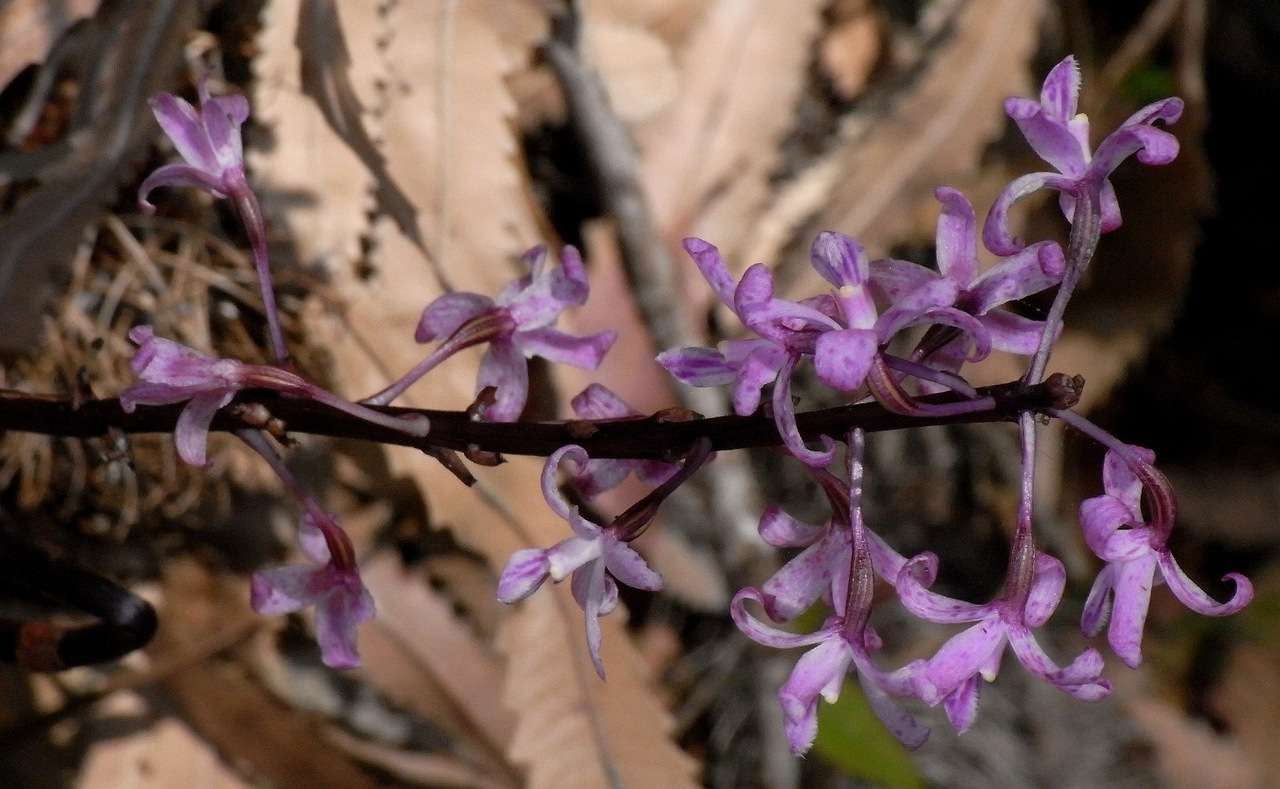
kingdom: Plantae
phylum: Tracheophyta
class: Liliopsida
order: Asparagales
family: Orchidaceae
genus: Dipodium
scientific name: Dipodium roseum
